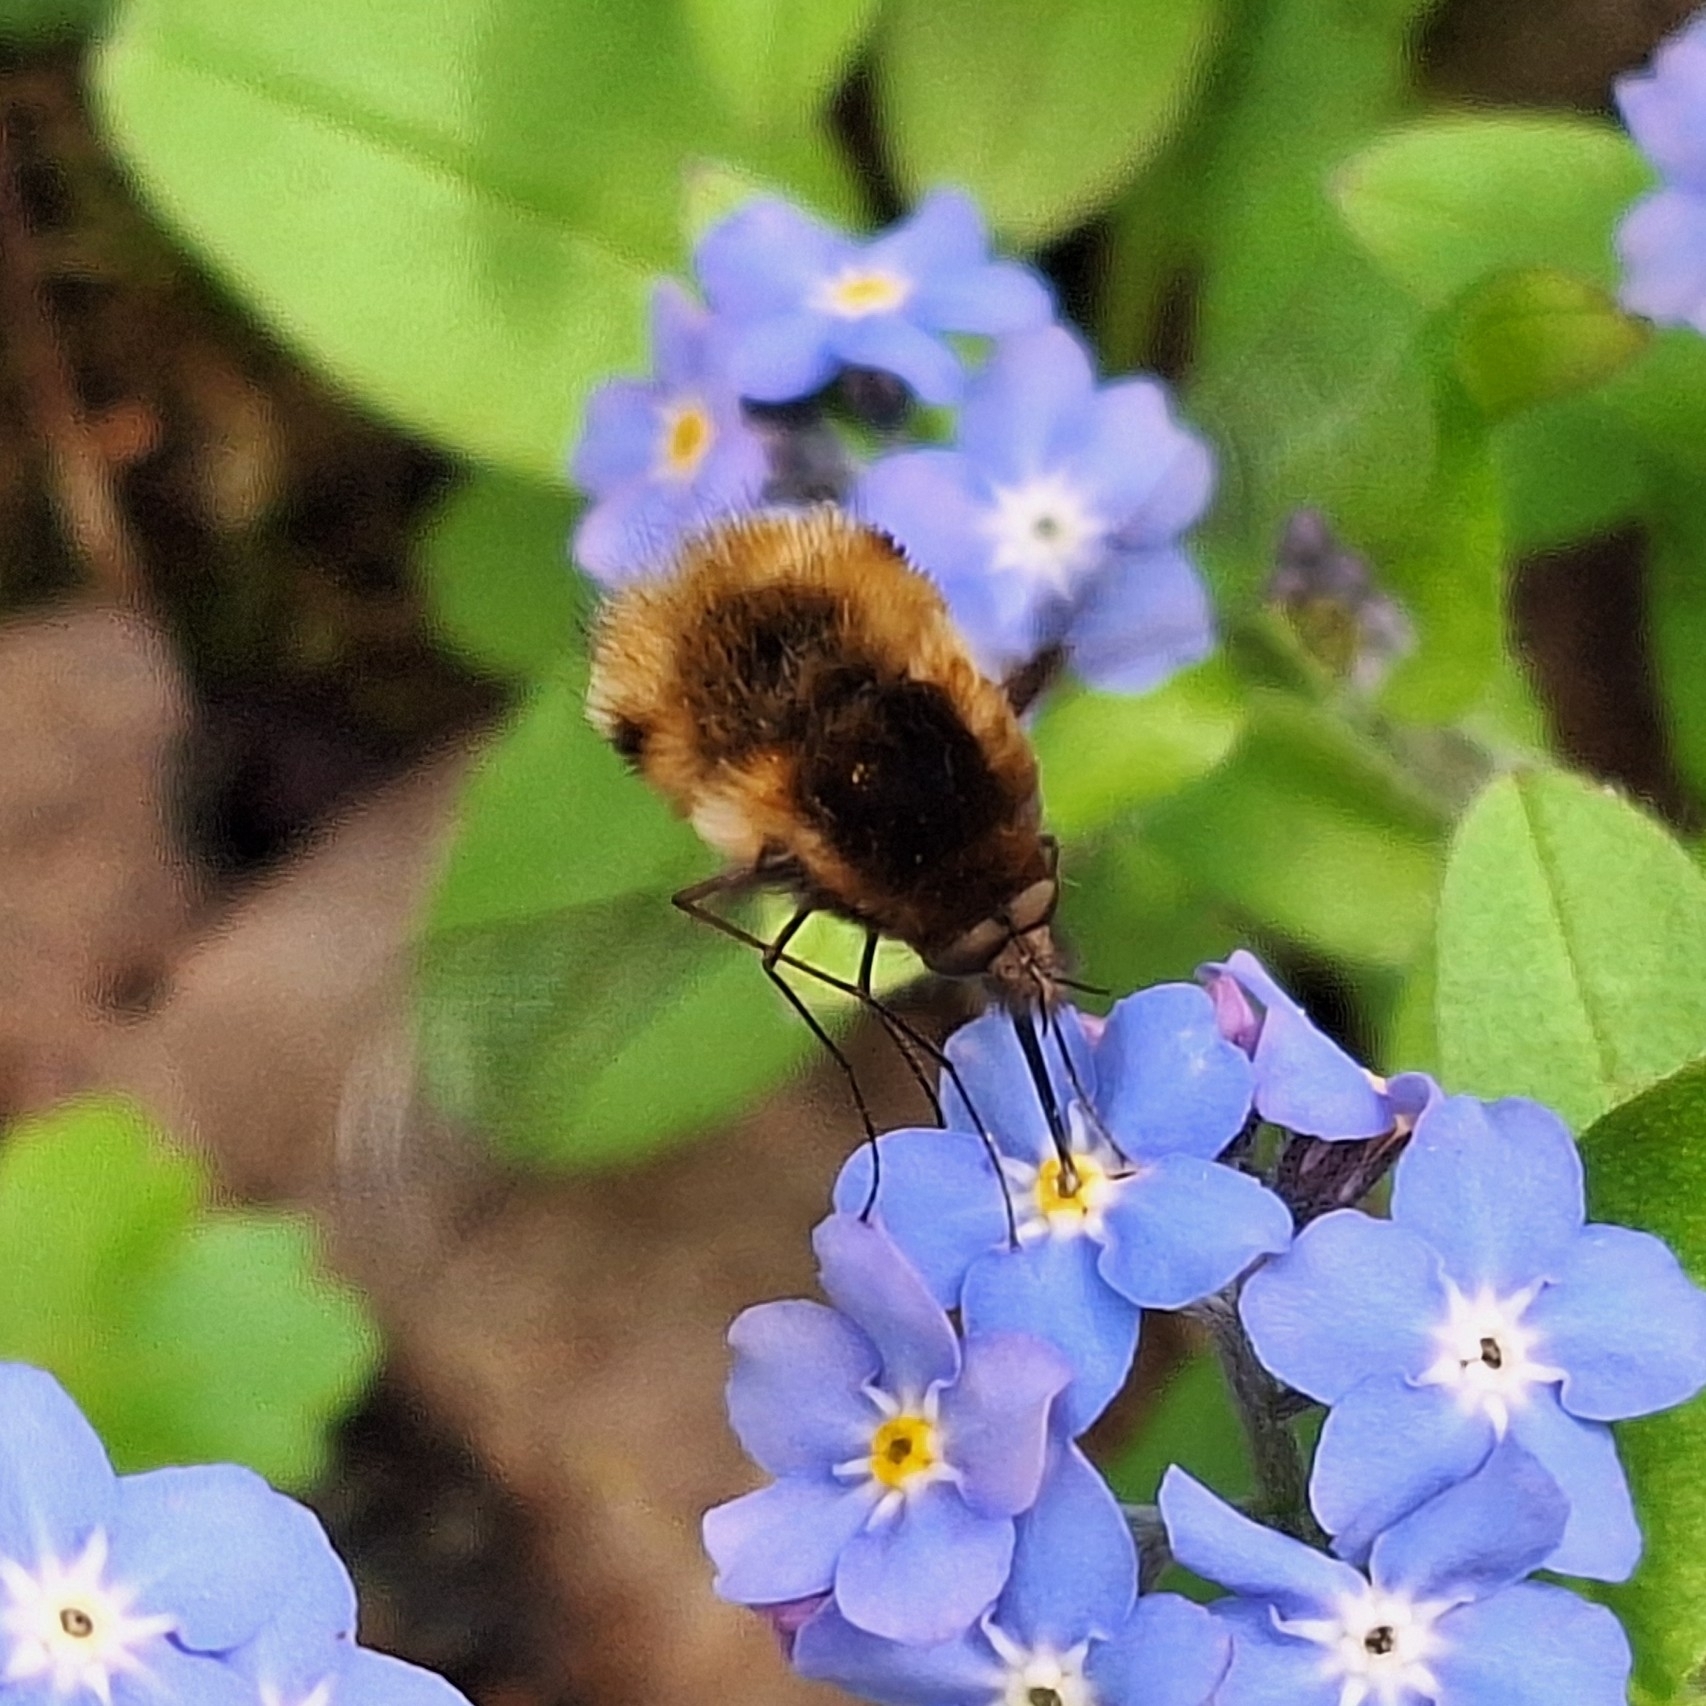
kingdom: Animalia
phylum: Arthropoda
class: Insecta
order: Diptera
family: Bombyliidae
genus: Bombylius
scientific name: Bombylius major
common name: Bee fly
